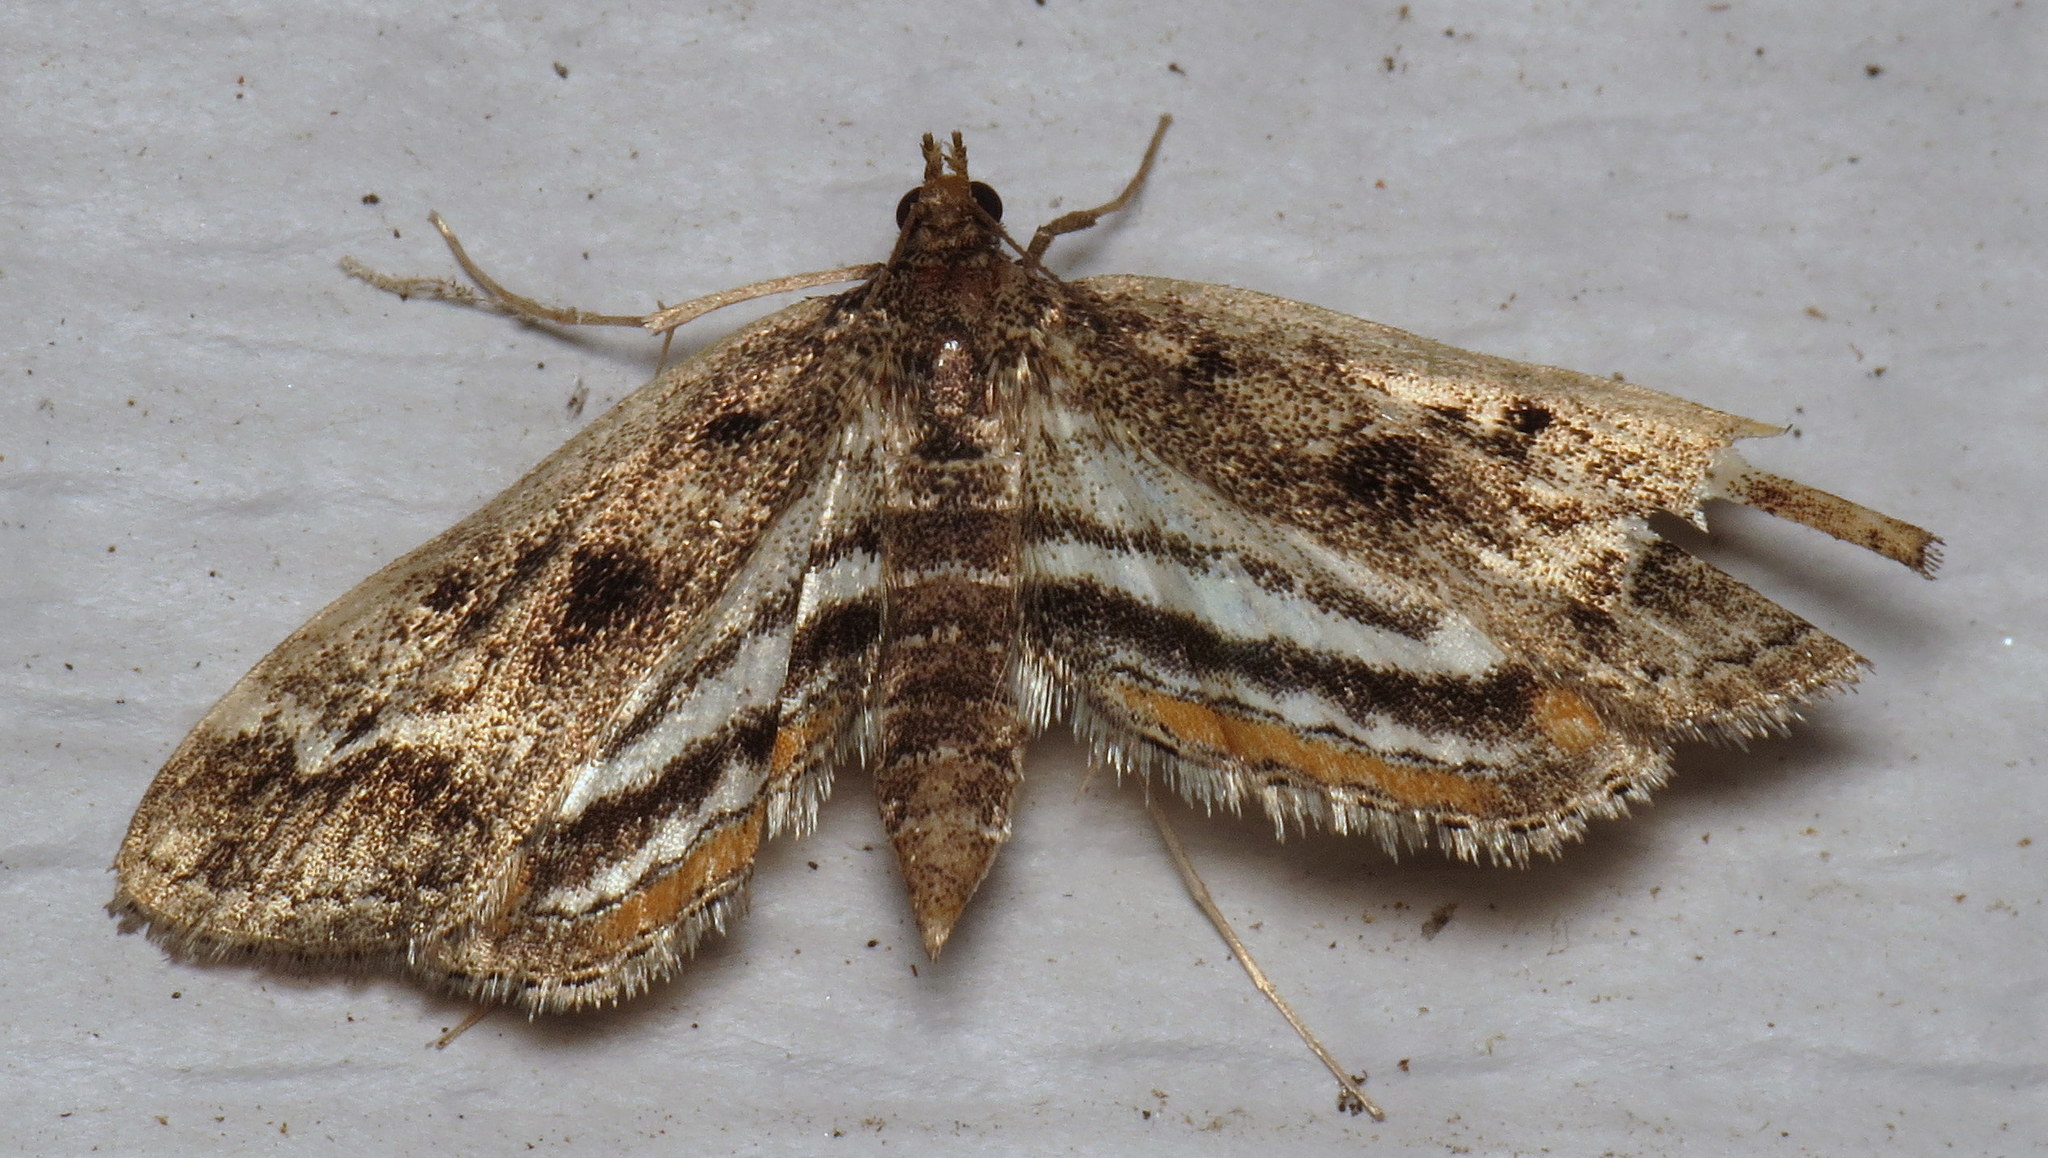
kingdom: Animalia
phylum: Arthropoda
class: Insecta
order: Lepidoptera
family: Crambidae
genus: Parapoynx
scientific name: Parapoynx obscuralis
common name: American china-mark
